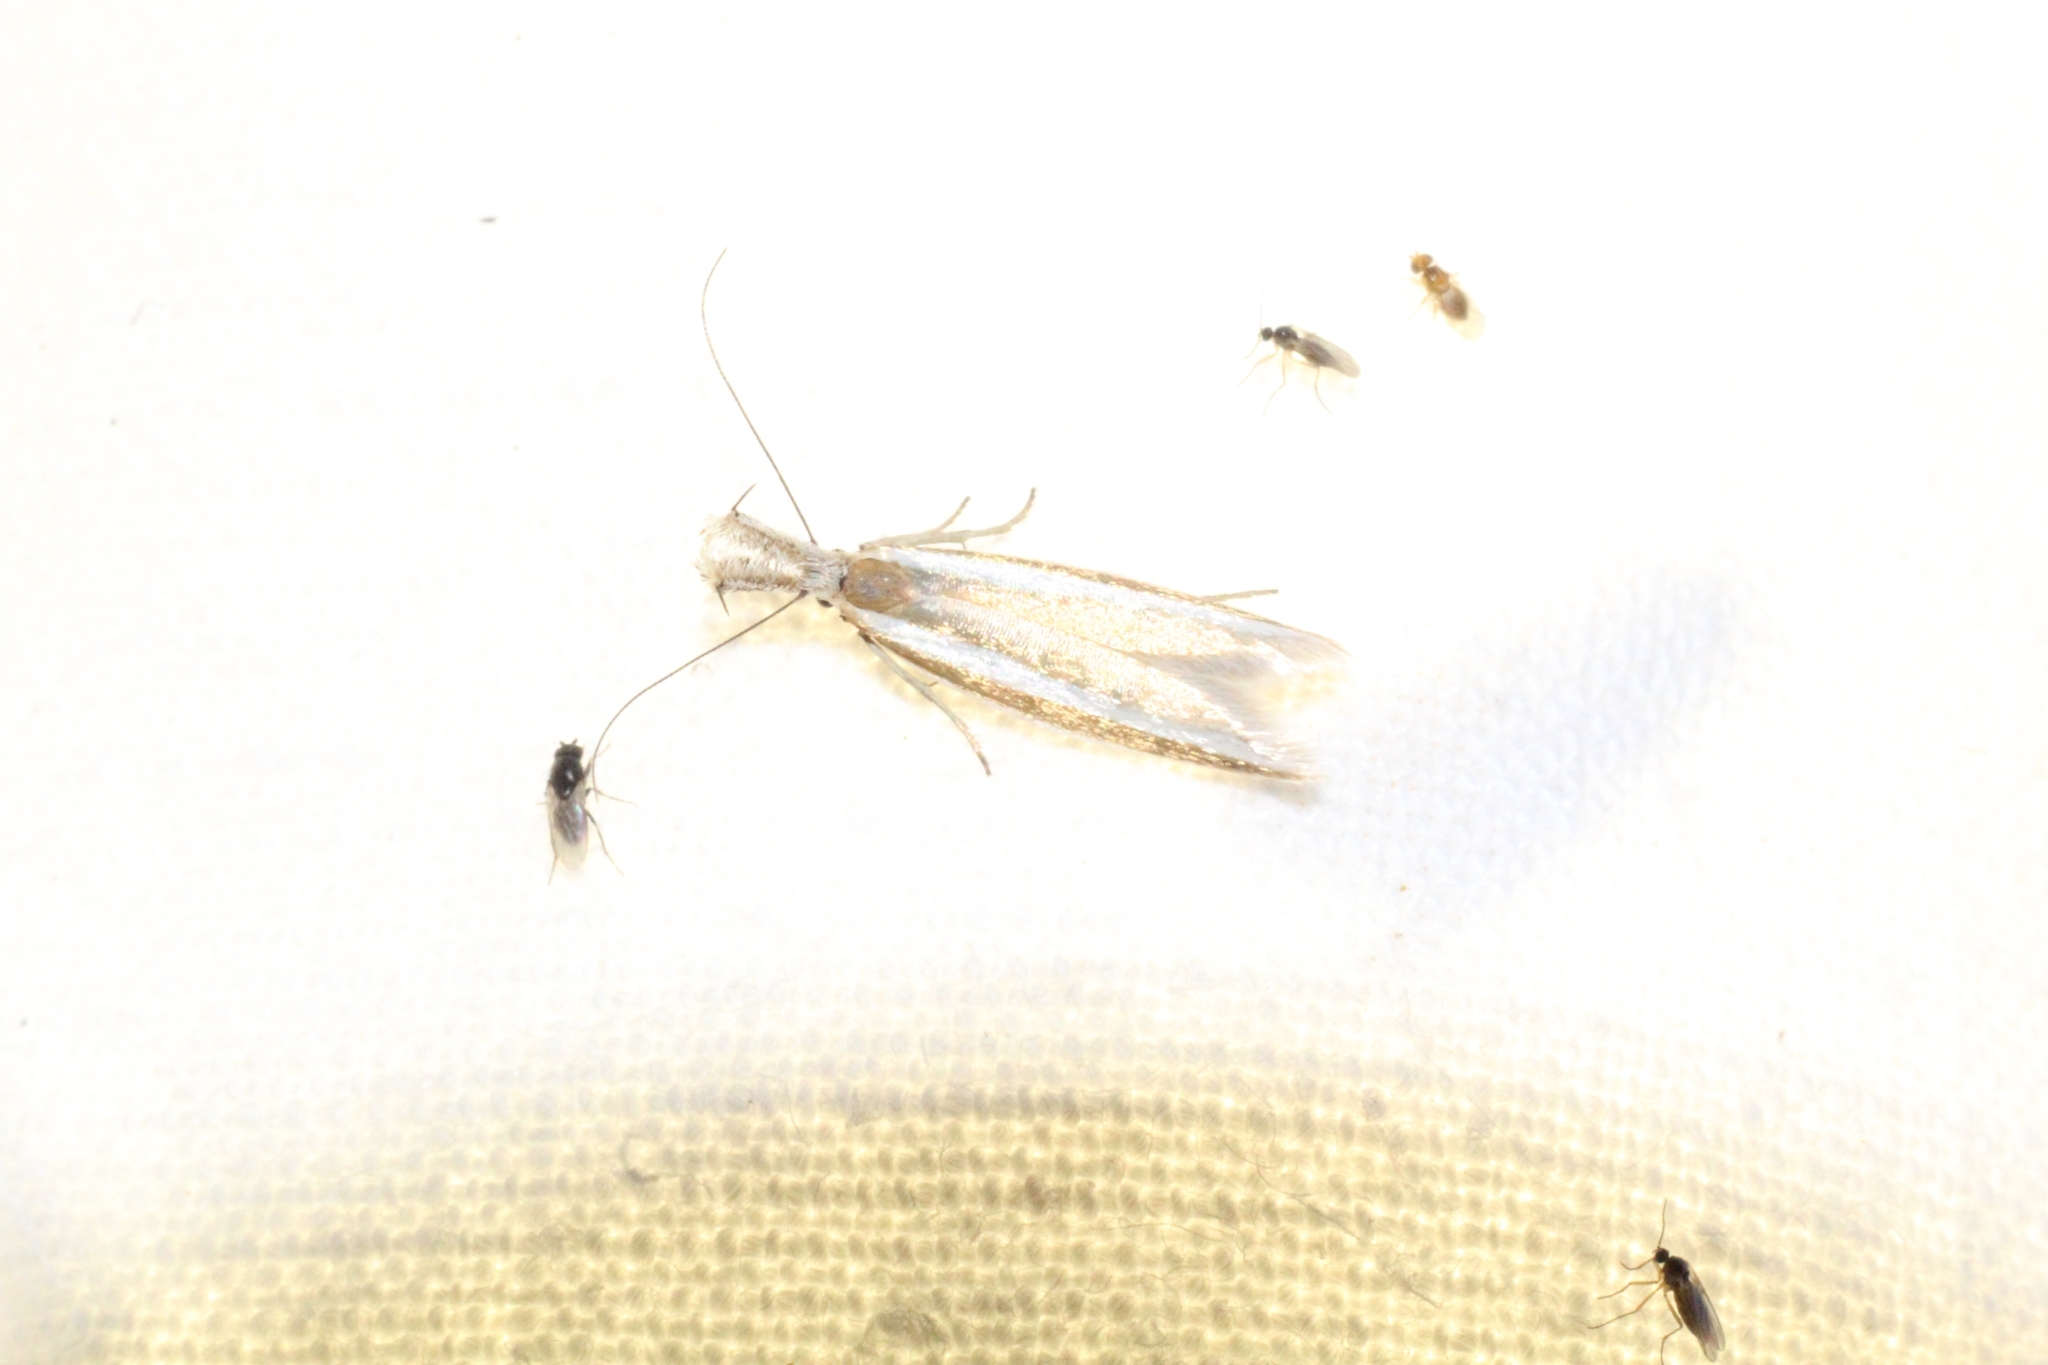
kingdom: Animalia
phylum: Arthropoda
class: Insecta
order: Lepidoptera
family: Oecophoridae
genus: Pleurota
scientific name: Pleurota aristella
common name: Southern streak
